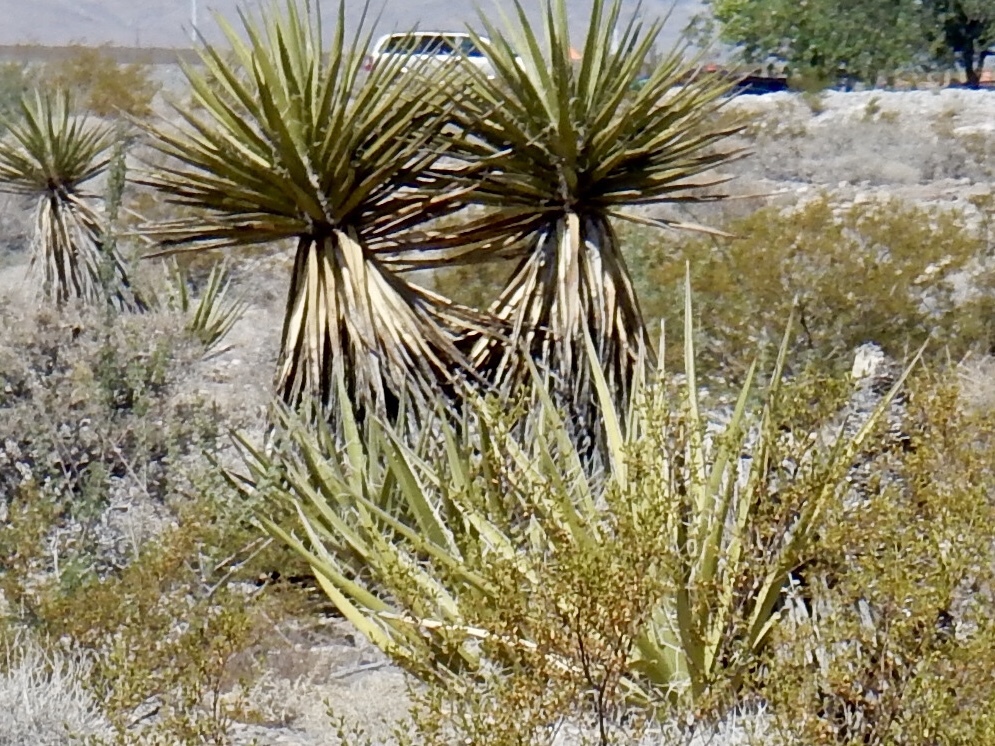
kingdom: Plantae
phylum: Tracheophyta
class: Liliopsida
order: Asparagales
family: Asparagaceae
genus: Yucca
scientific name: Yucca schidigera
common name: Mojave yucca
